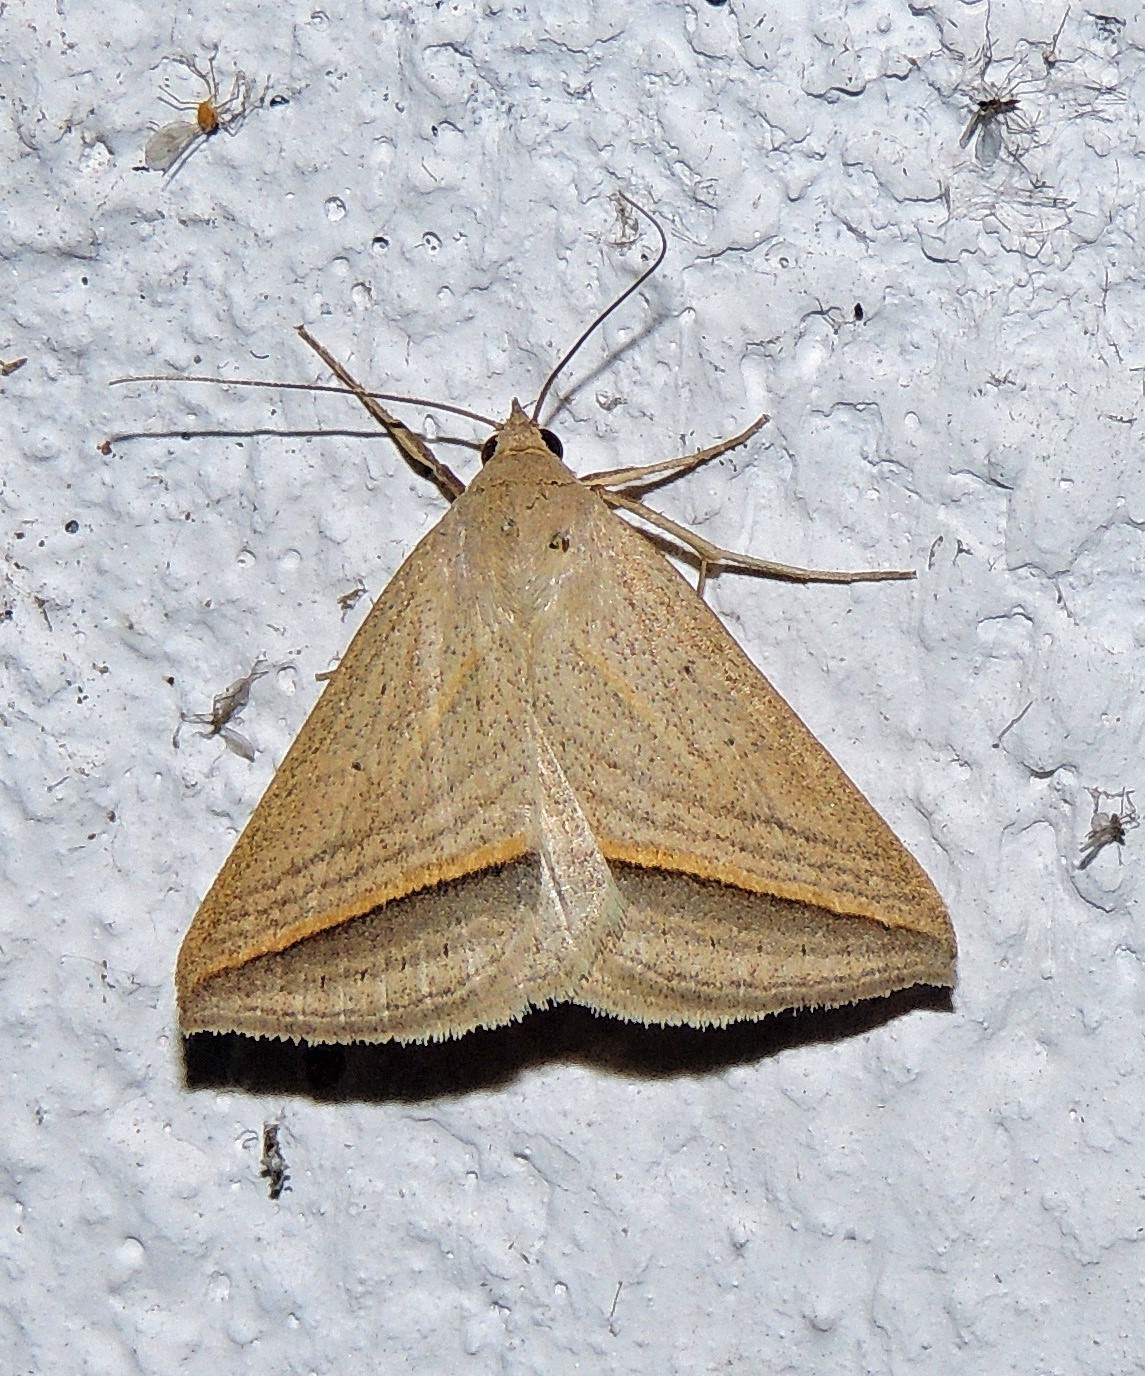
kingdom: Animalia
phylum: Arthropoda
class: Insecta
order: Lepidoptera
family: Erebidae
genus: Ptichodis
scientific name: Ptichodis dorsalis
